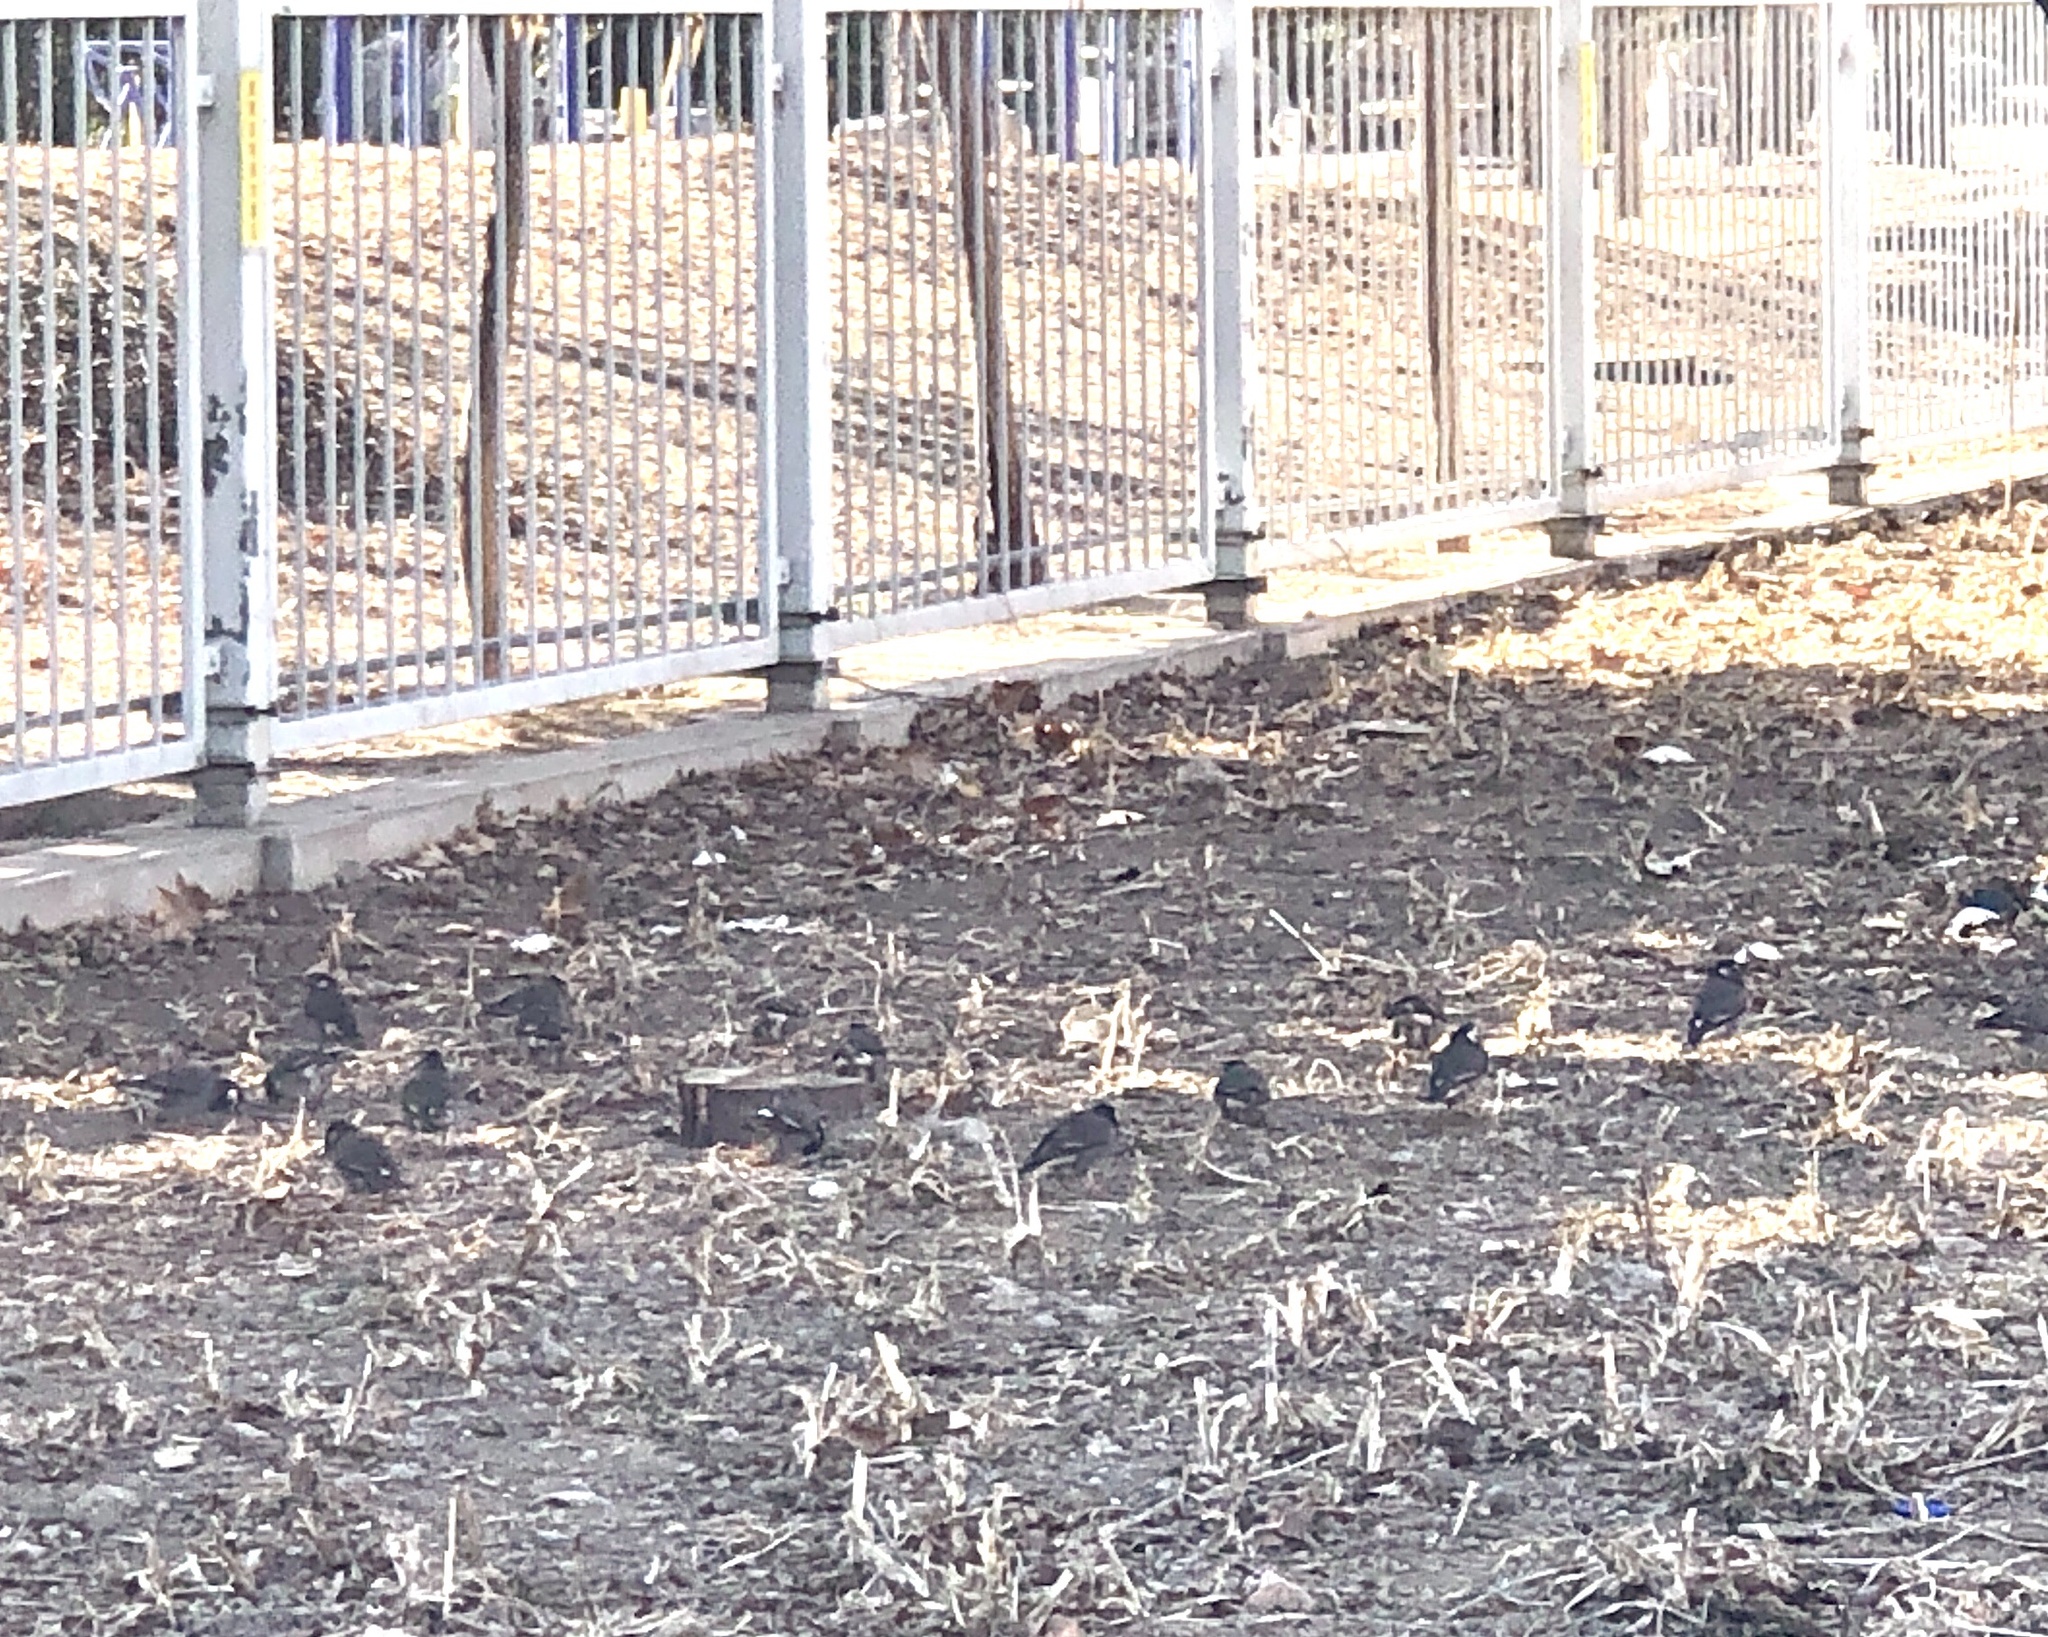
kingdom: Animalia
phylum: Chordata
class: Aves
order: Passeriformes
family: Sturnidae
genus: Spodiopsar
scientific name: Spodiopsar cineraceus
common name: White-cheeked starling
